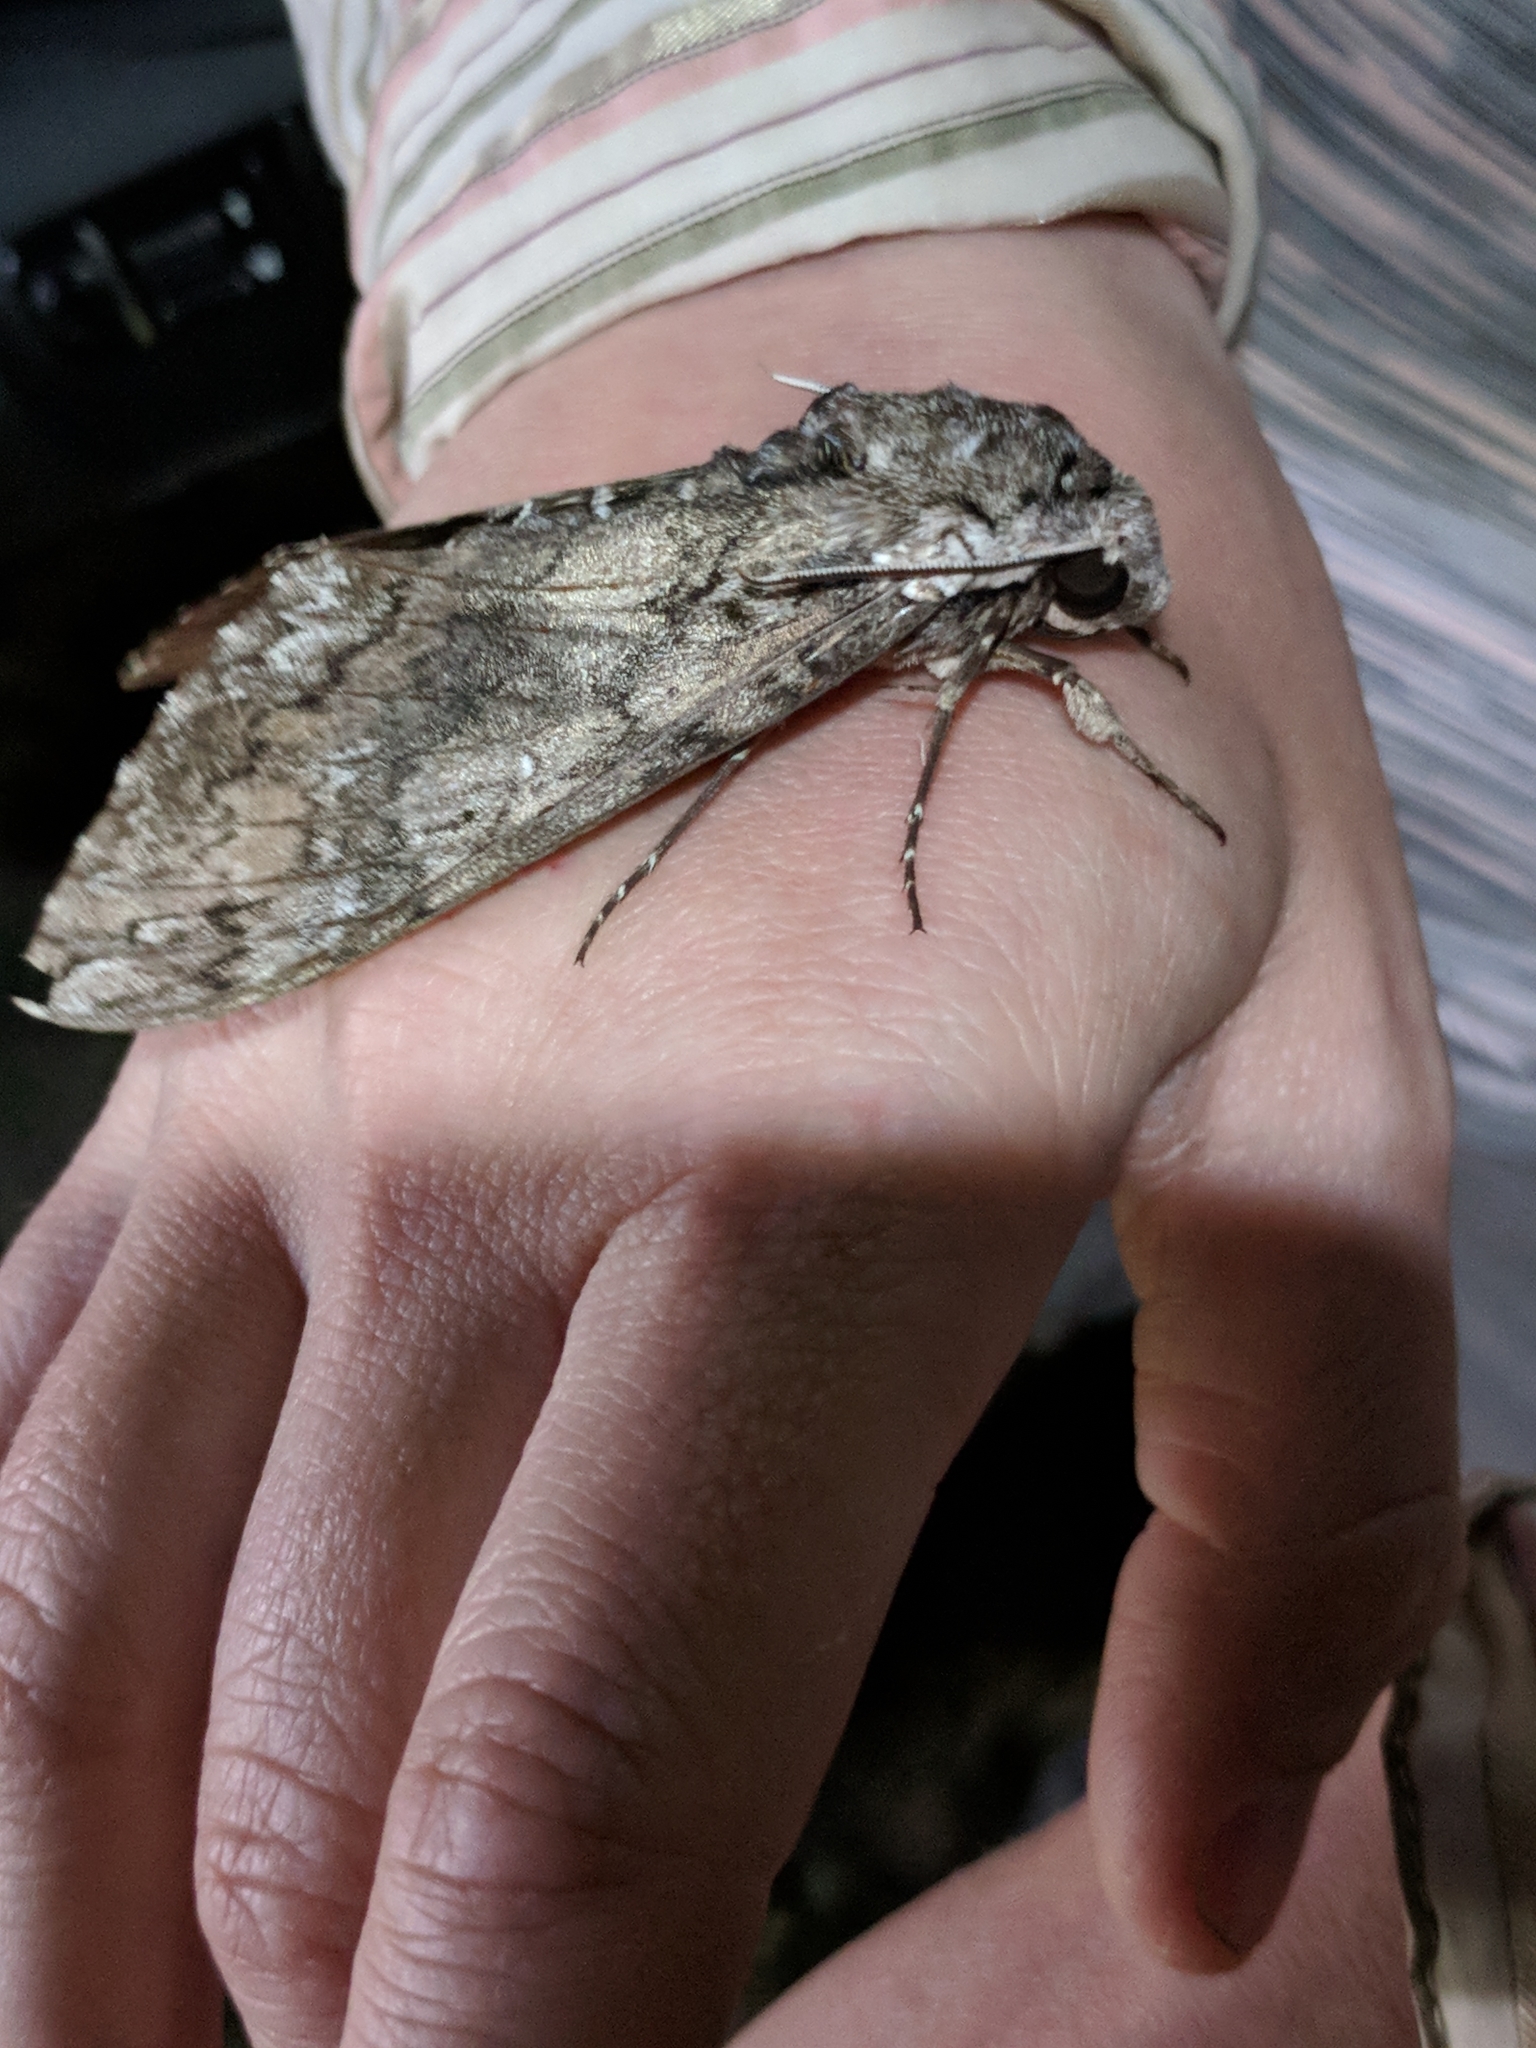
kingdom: Animalia
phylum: Arthropoda
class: Insecta
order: Lepidoptera
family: Sphingidae
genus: Manduca
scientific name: Manduca sexta
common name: Carolina sphinx
